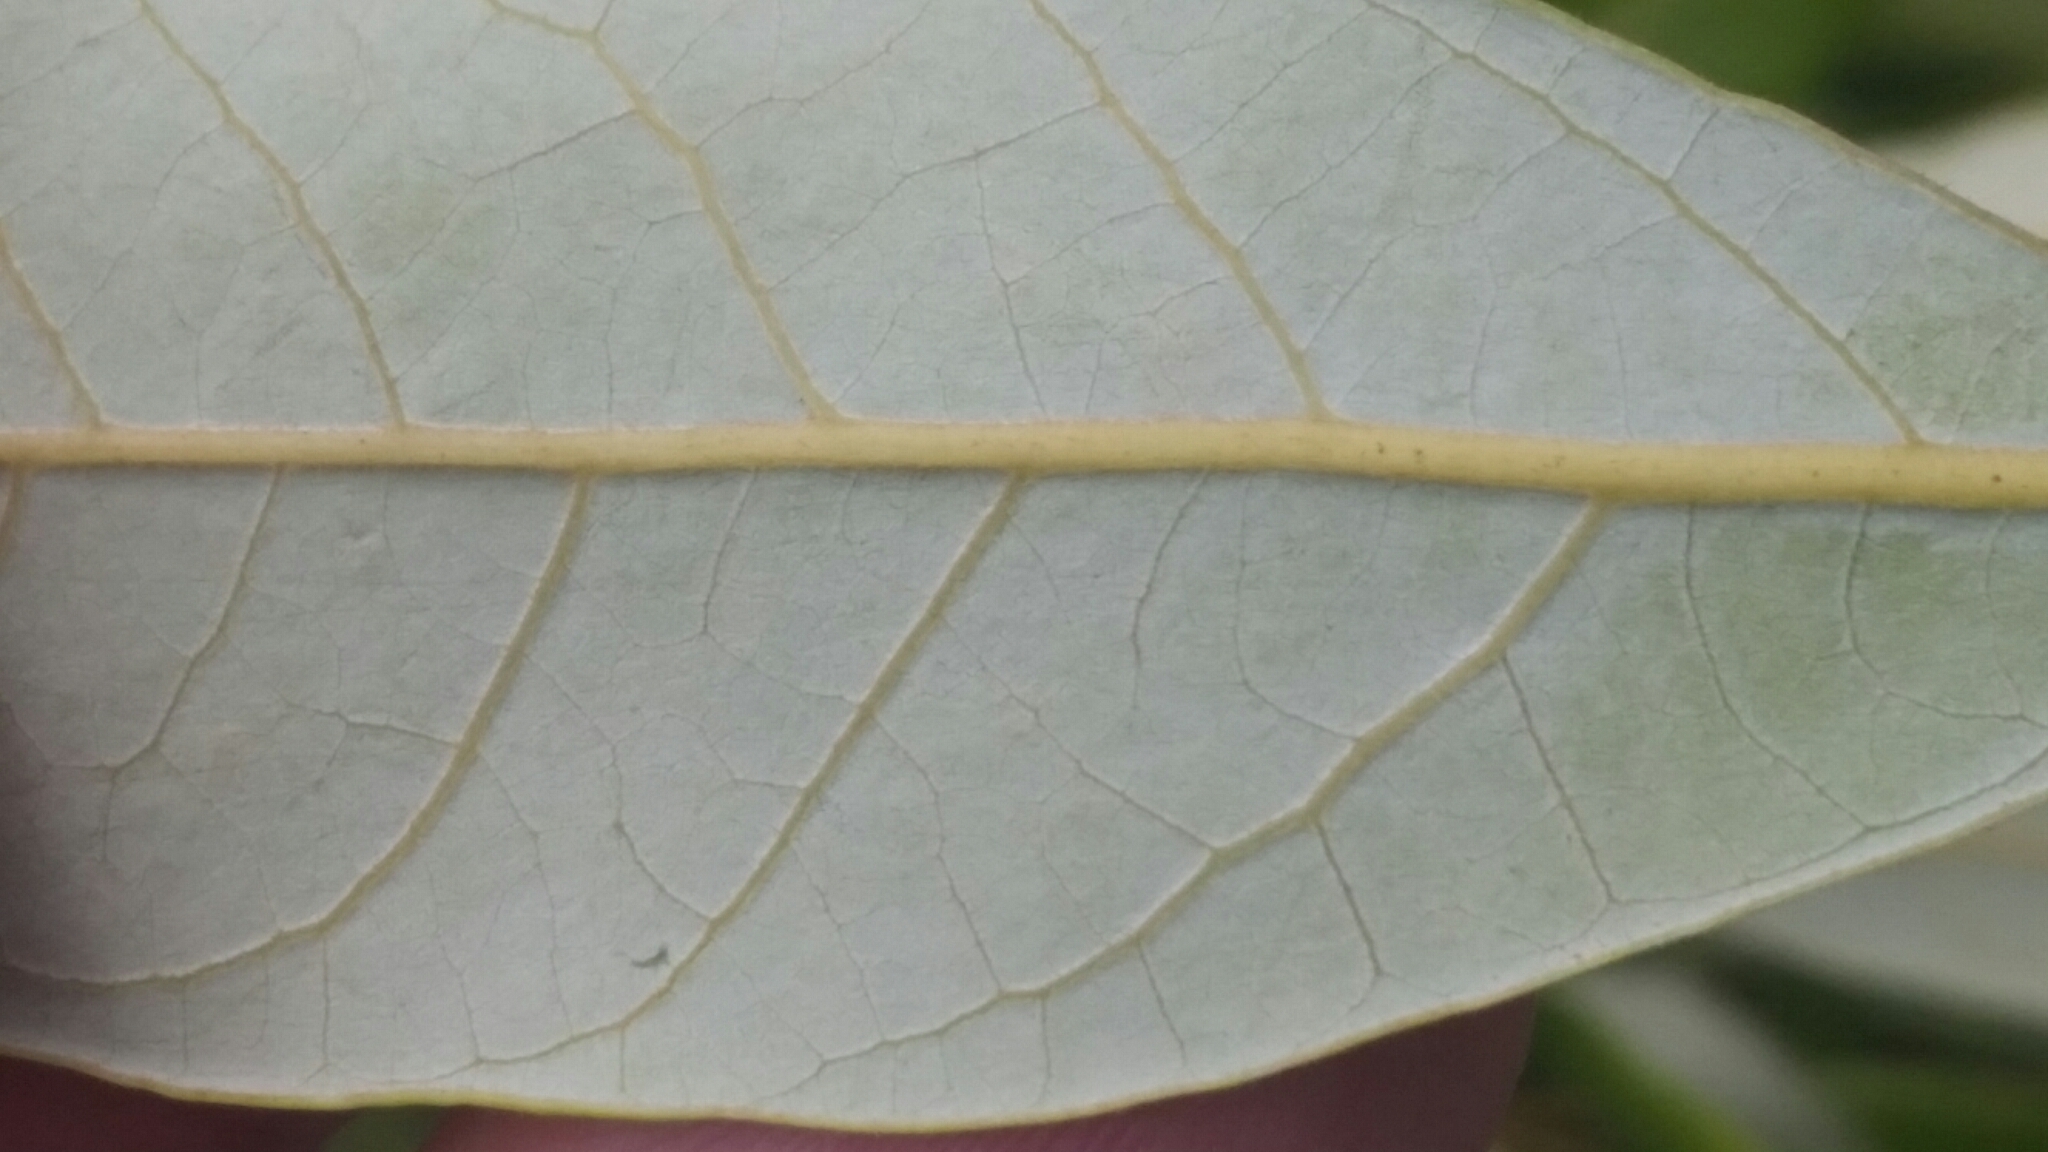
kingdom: Plantae
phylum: Tracheophyta
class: Magnoliopsida
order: Laurales
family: Lauraceae
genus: Persea
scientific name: Persea borbonia
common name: Redbay
